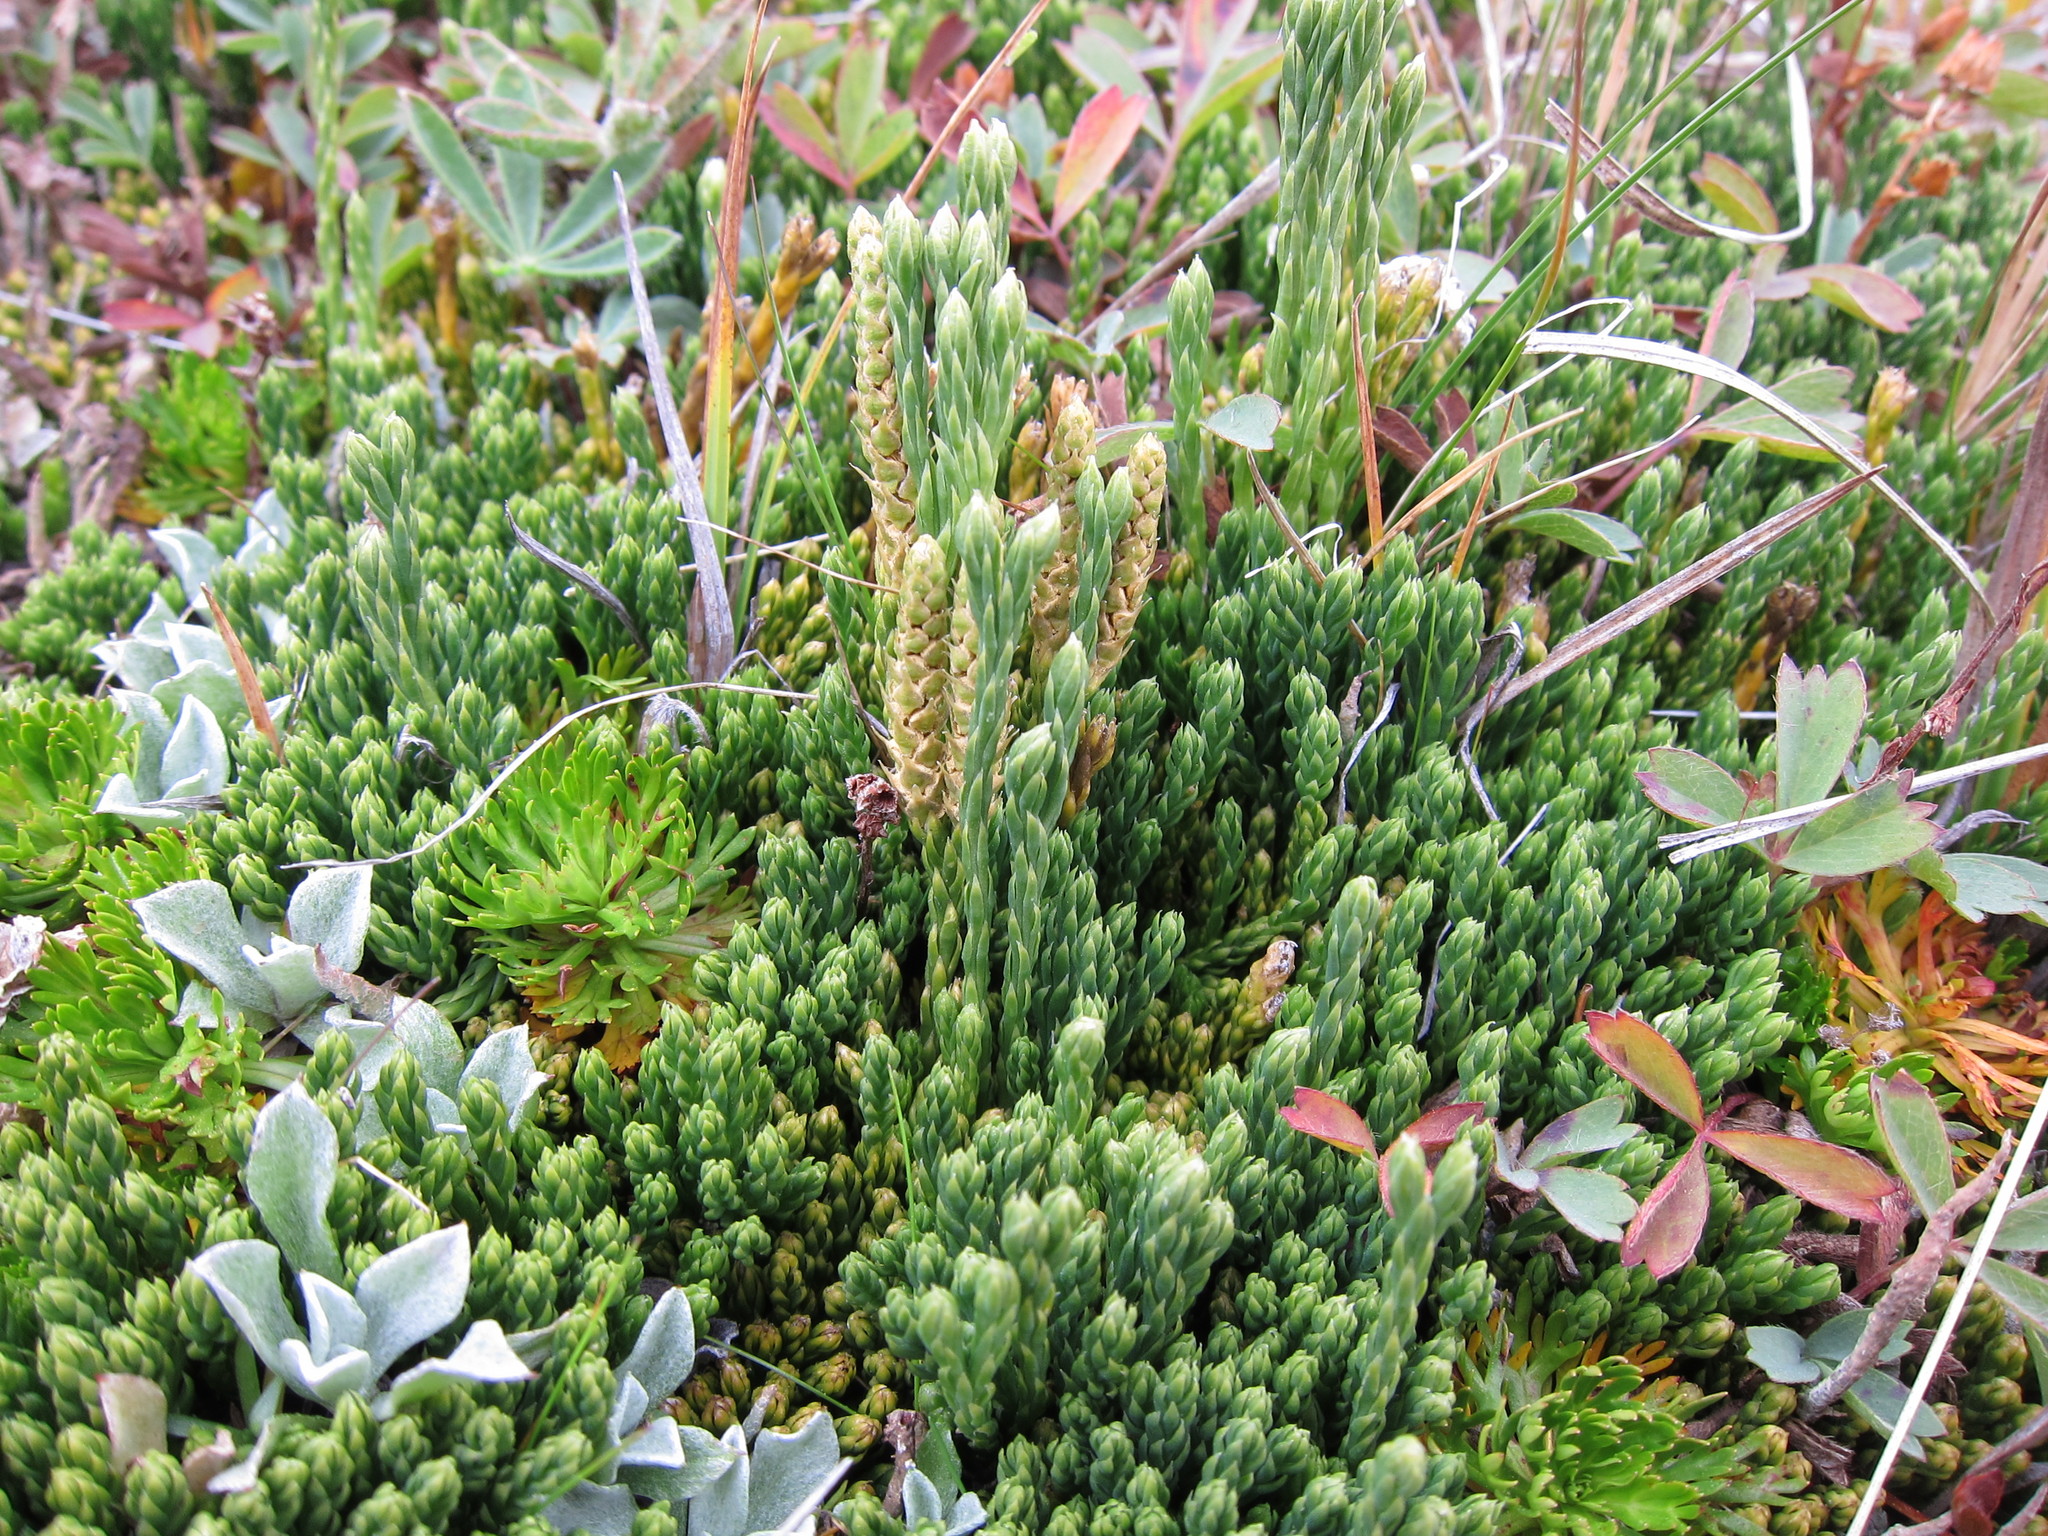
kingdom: Plantae
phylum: Tracheophyta
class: Lycopodiopsida
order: Lycopodiales
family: Lycopodiaceae
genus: Diphasiastrum
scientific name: Diphasiastrum
